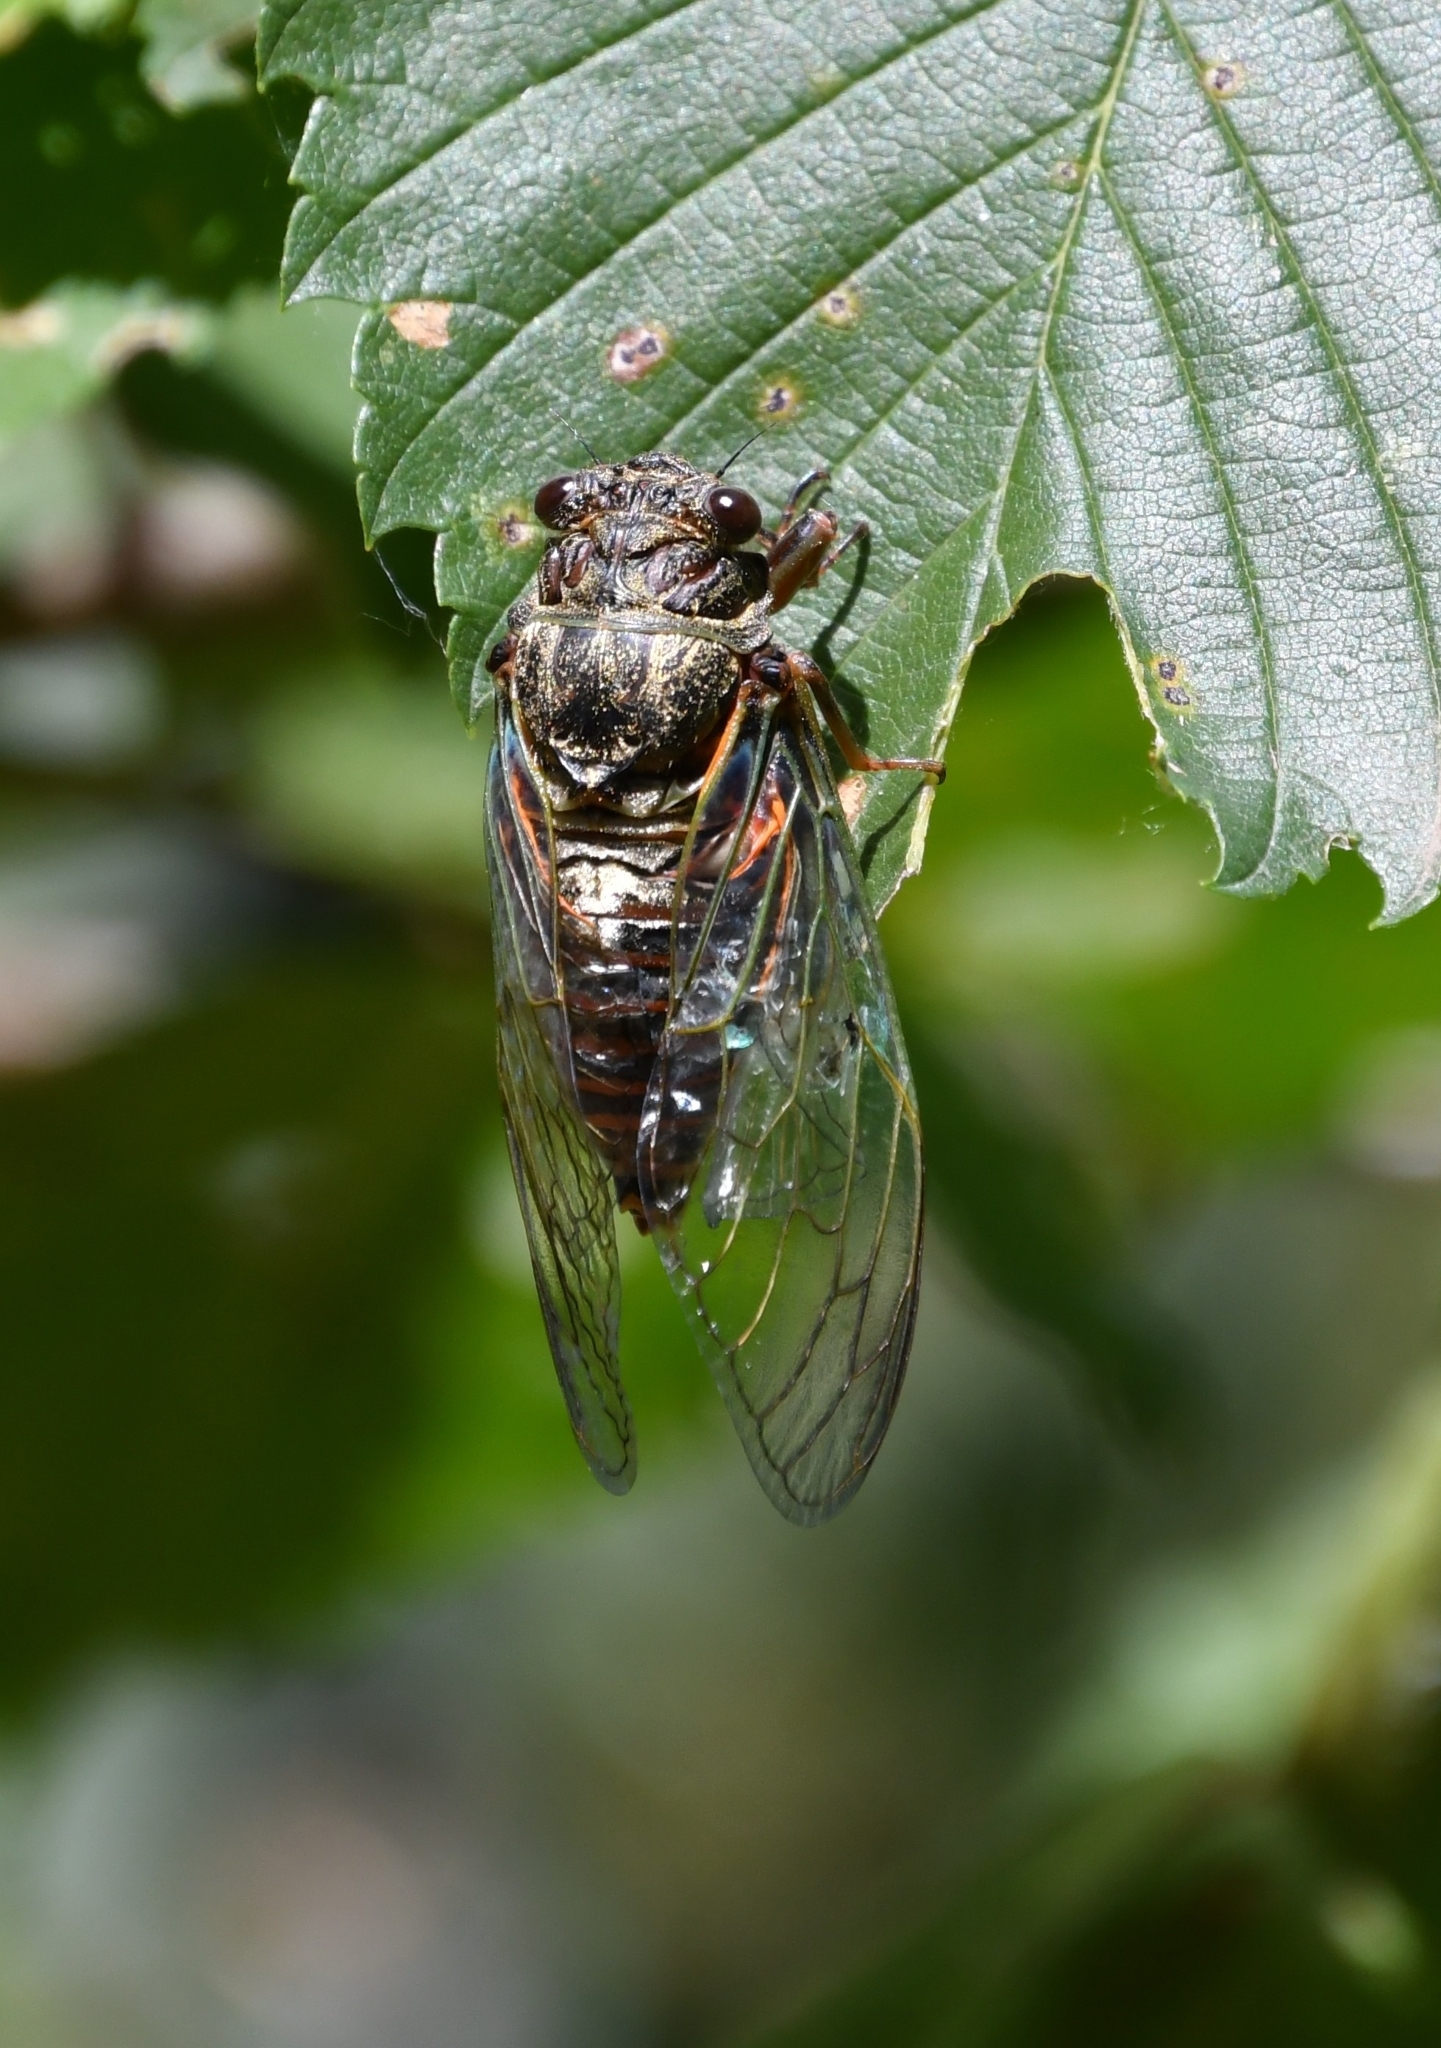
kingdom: Animalia
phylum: Arthropoda
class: Insecta
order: Hemiptera
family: Cicadidae
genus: Tibicina
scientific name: Tibicina haematodes
